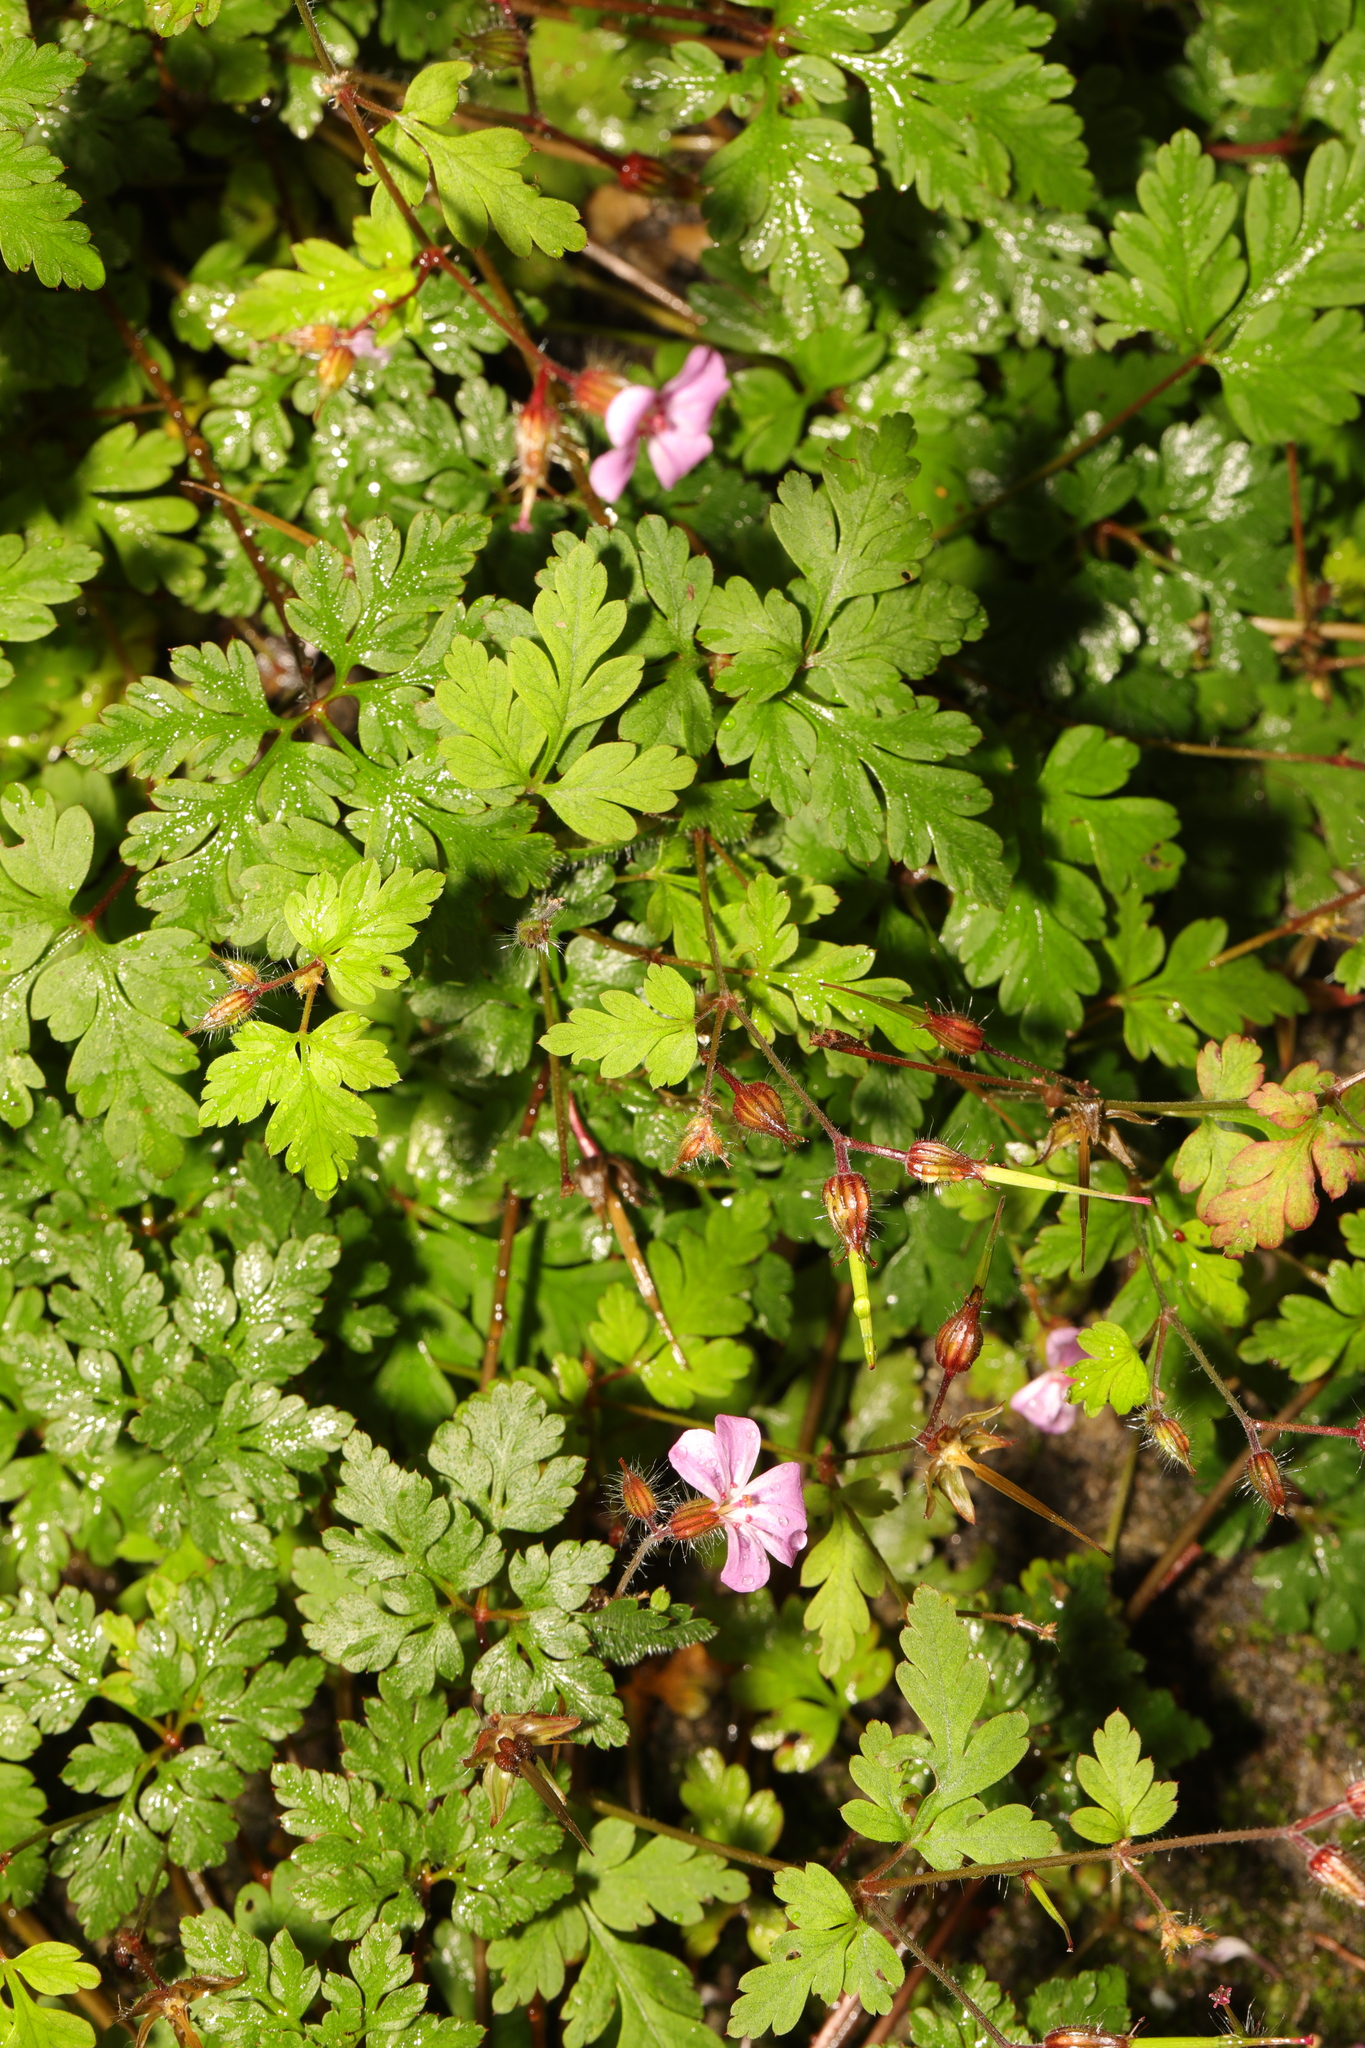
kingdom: Plantae
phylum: Tracheophyta
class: Magnoliopsida
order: Geraniales
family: Geraniaceae
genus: Geranium
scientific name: Geranium robertianum
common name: Herb-robert
